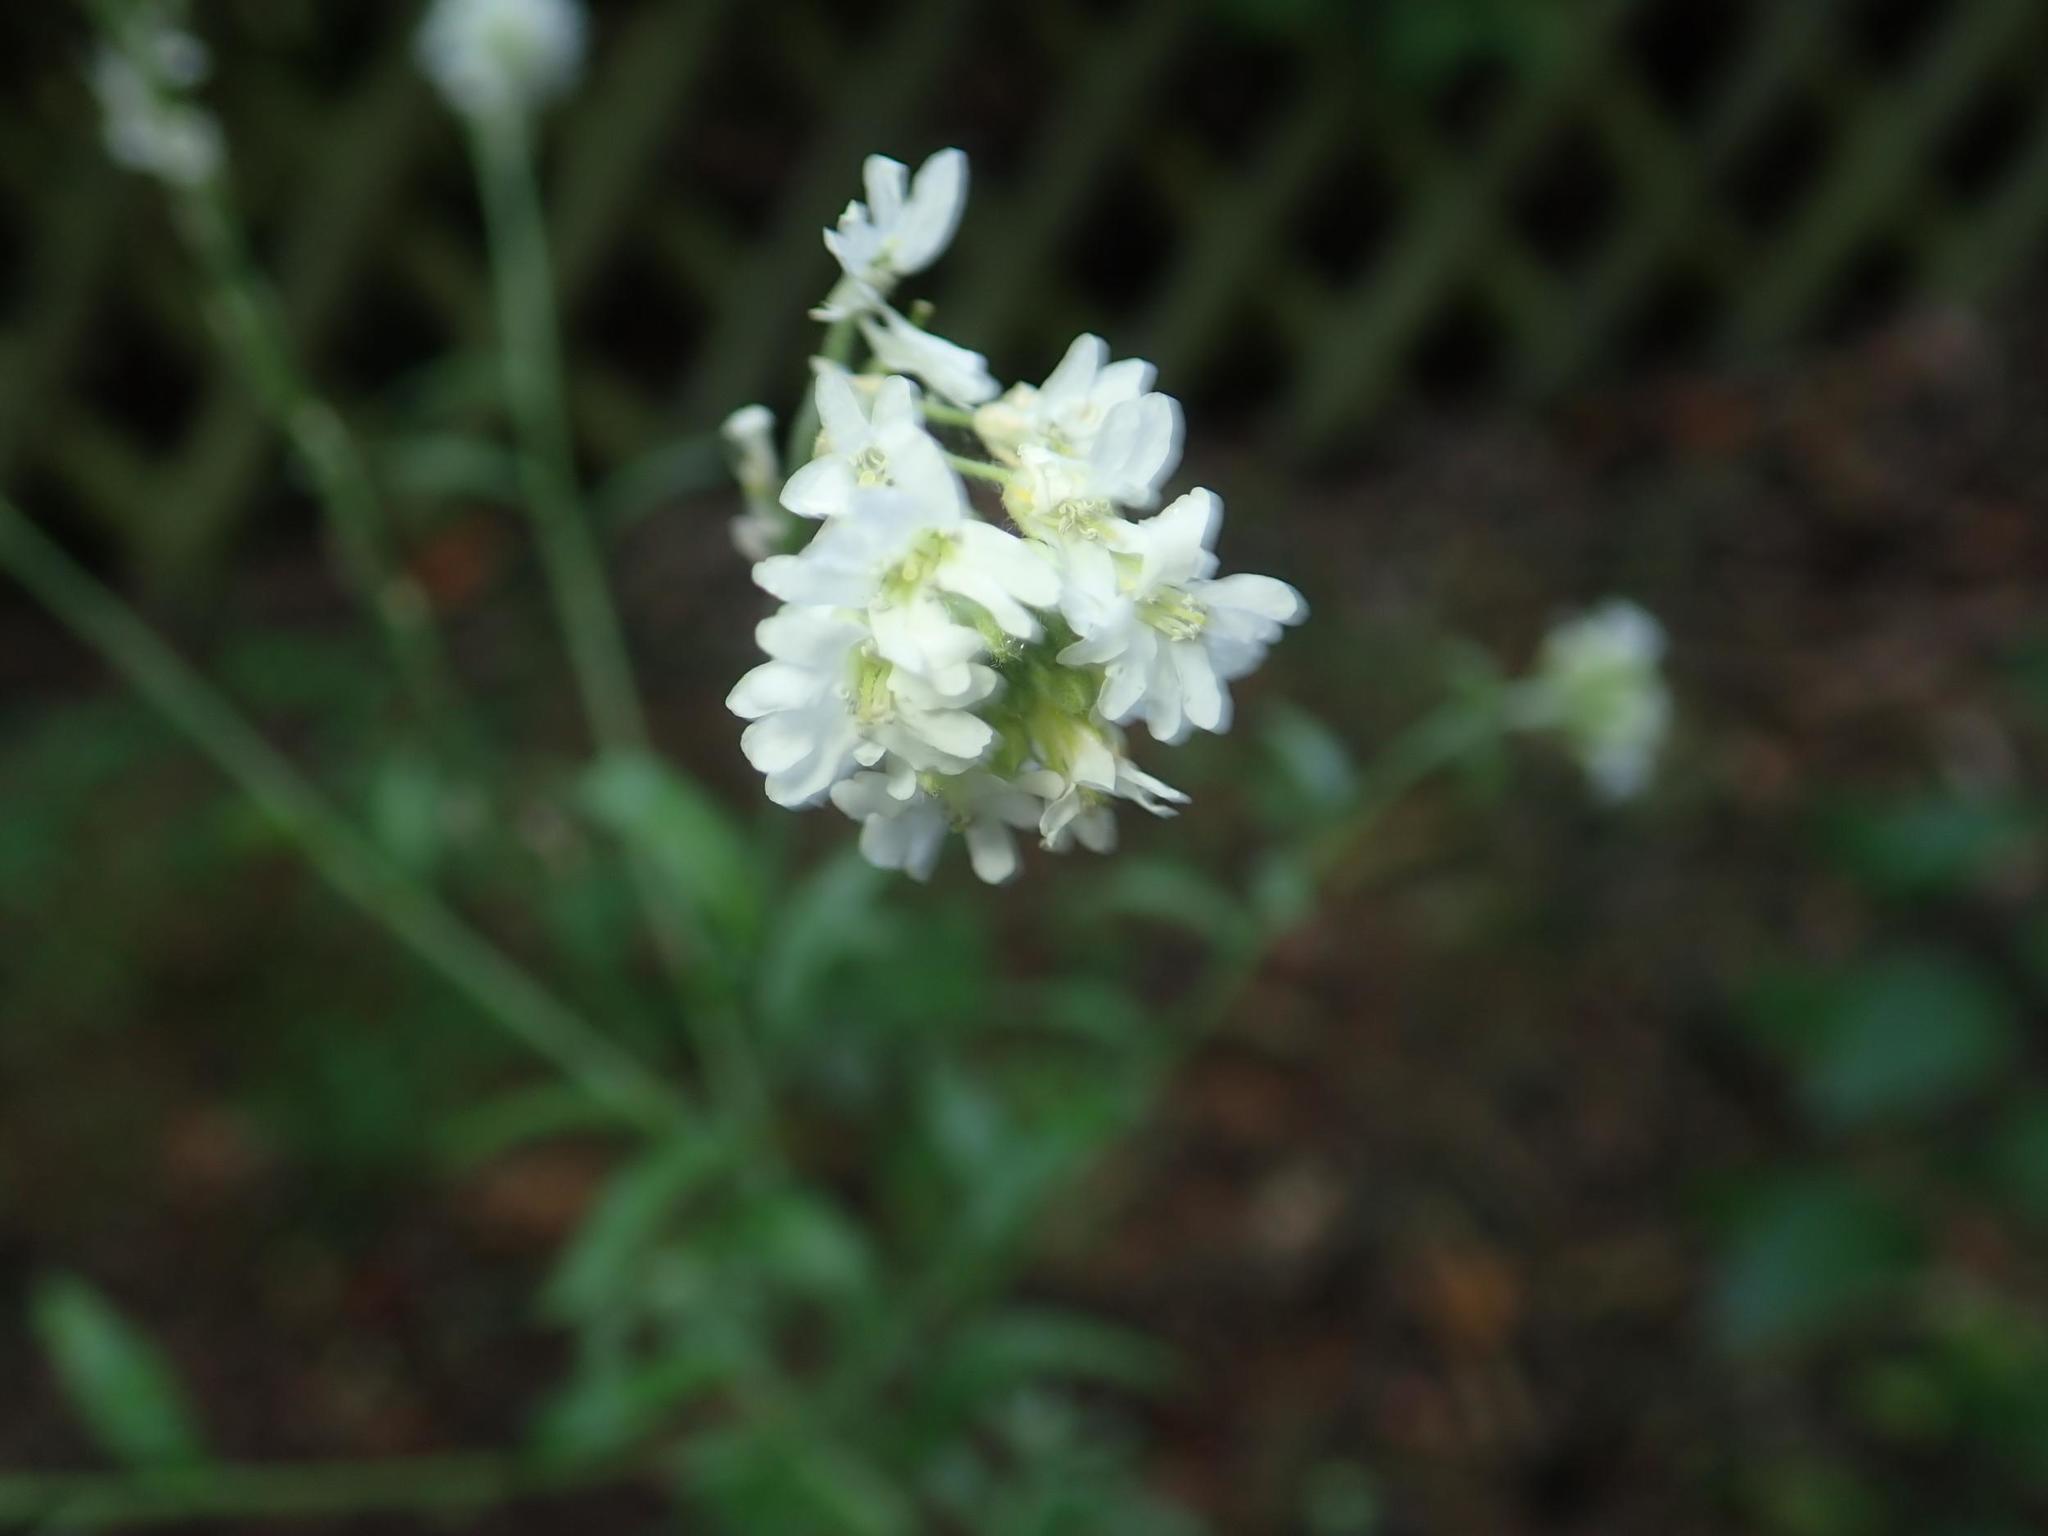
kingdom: Plantae
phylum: Tracheophyta
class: Magnoliopsida
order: Brassicales
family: Brassicaceae
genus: Berteroa
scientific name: Berteroa incana
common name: Hoary alison
